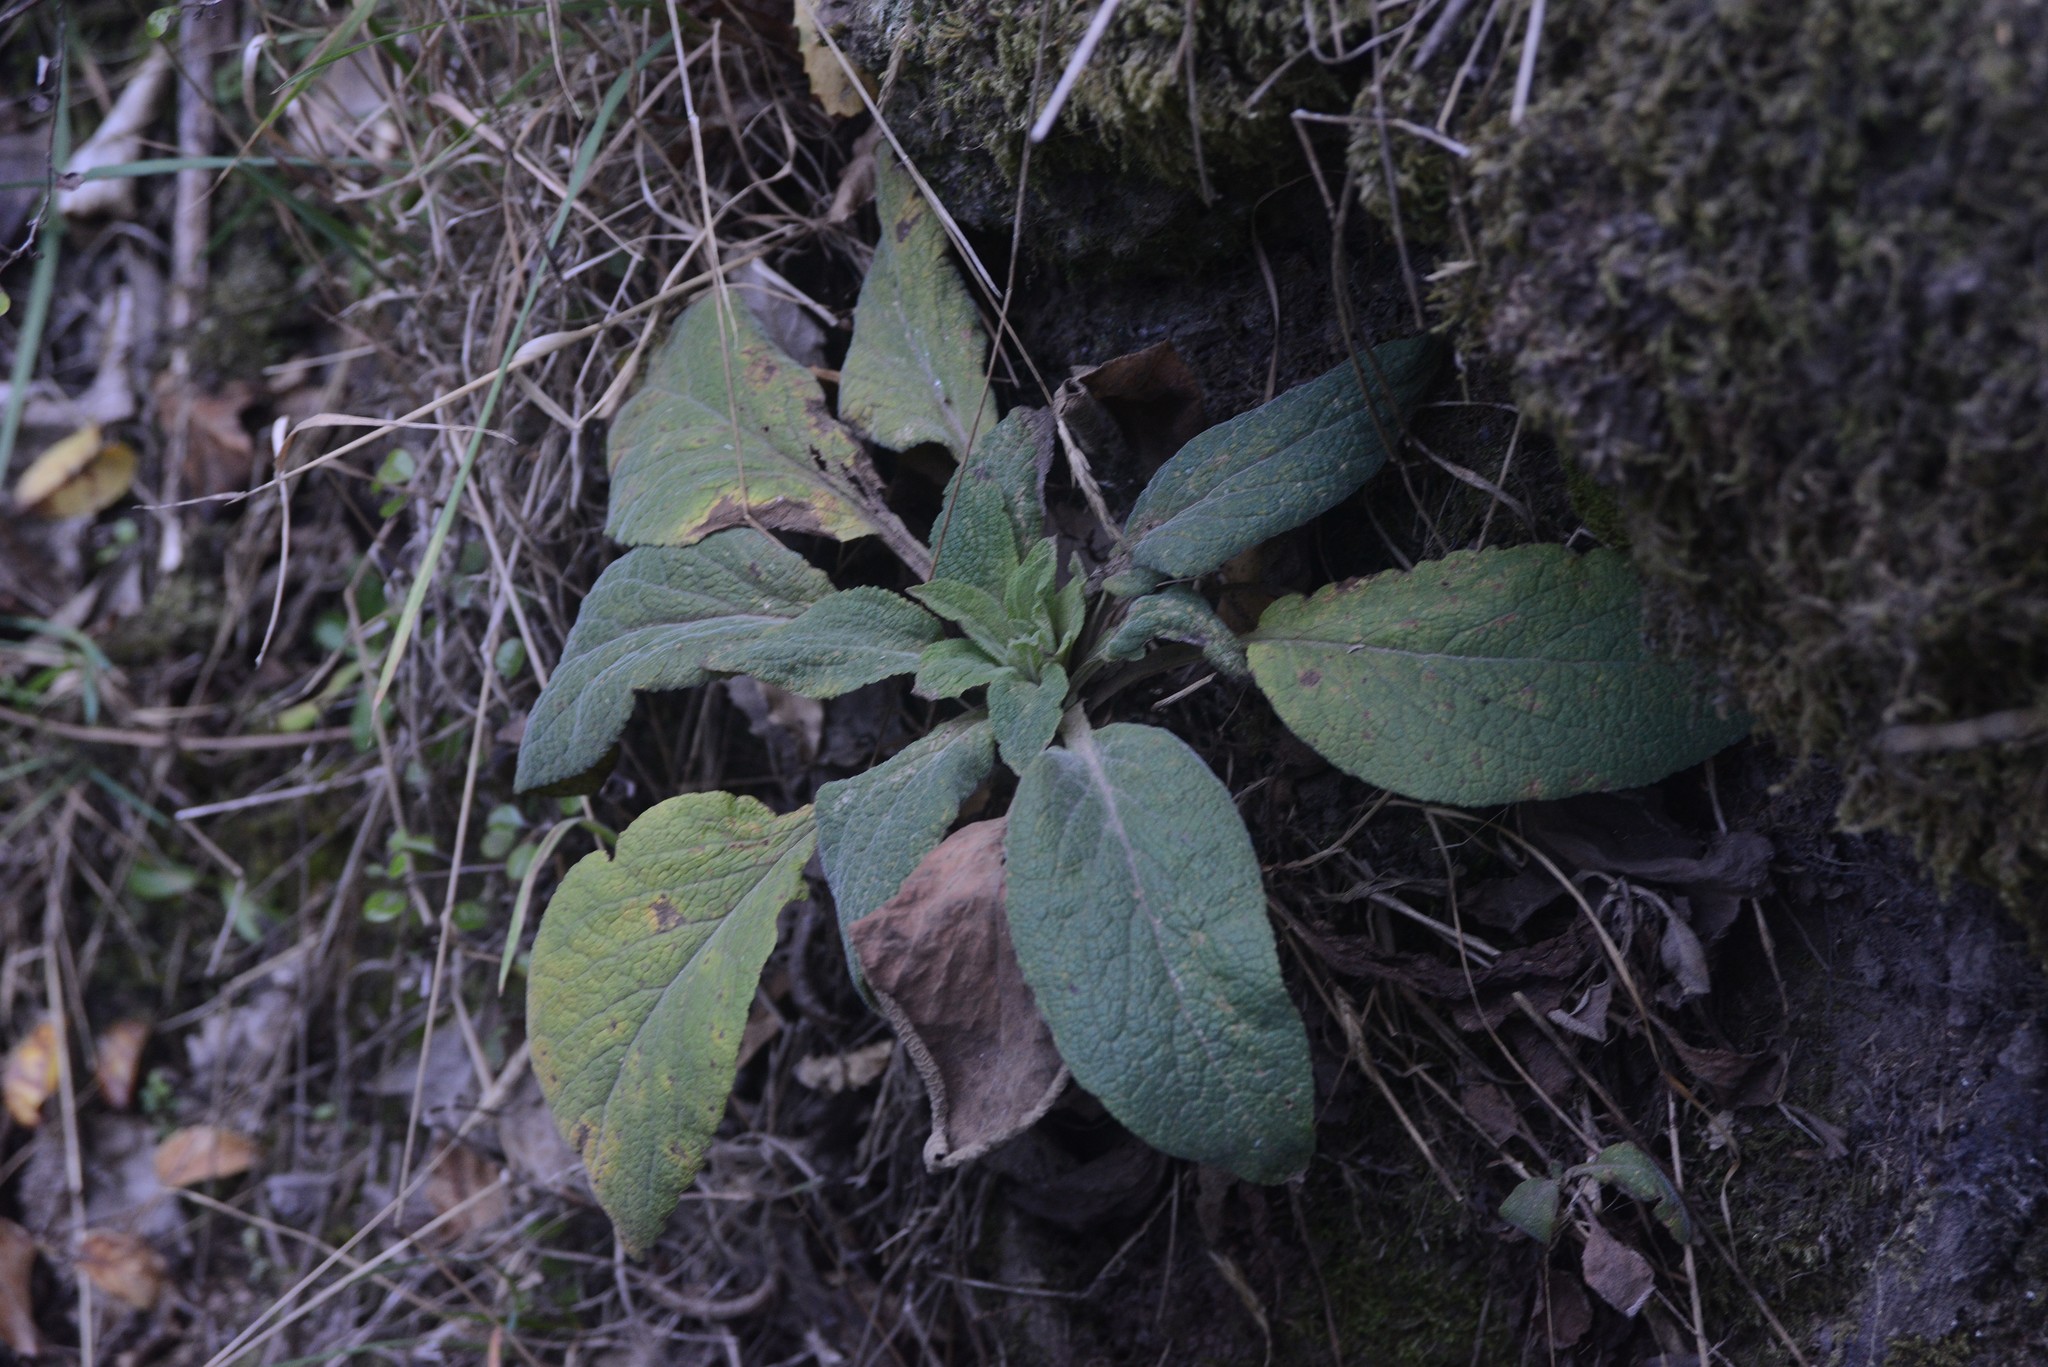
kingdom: Plantae
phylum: Tracheophyta
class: Magnoliopsida
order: Lamiales
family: Plantaginaceae
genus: Digitalis
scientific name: Digitalis purpurea
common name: Foxglove
